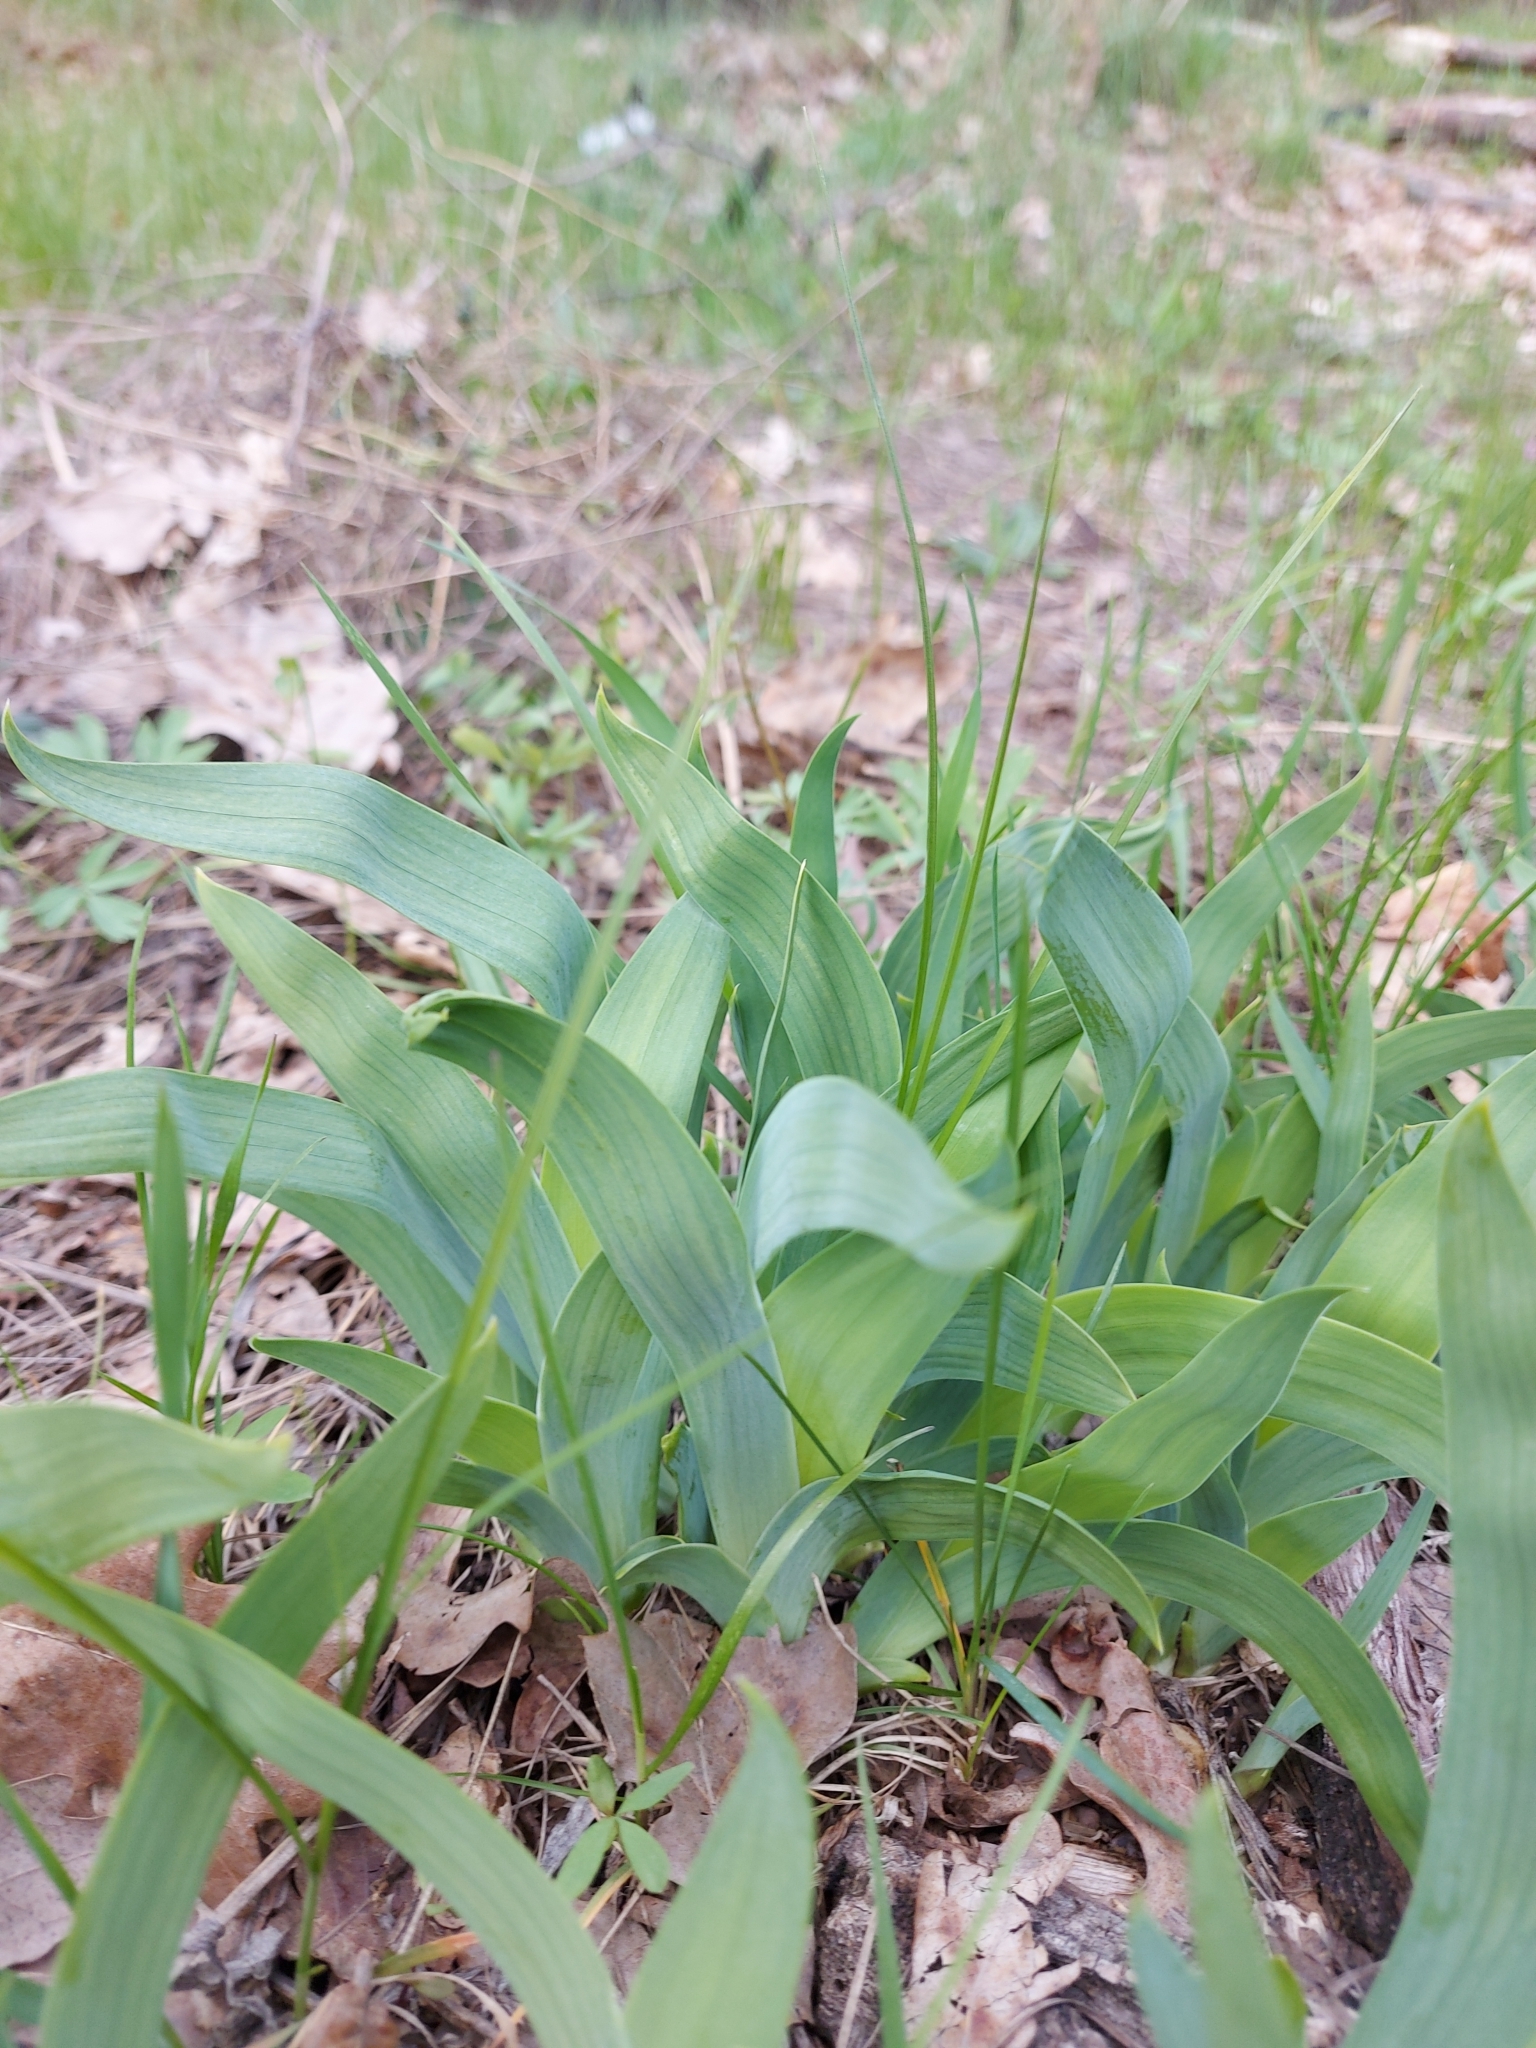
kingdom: Plantae
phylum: Tracheophyta
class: Liliopsida
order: Asparagales
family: Iridaceae
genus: Iris
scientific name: Iris aphylla
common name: Stool iris
